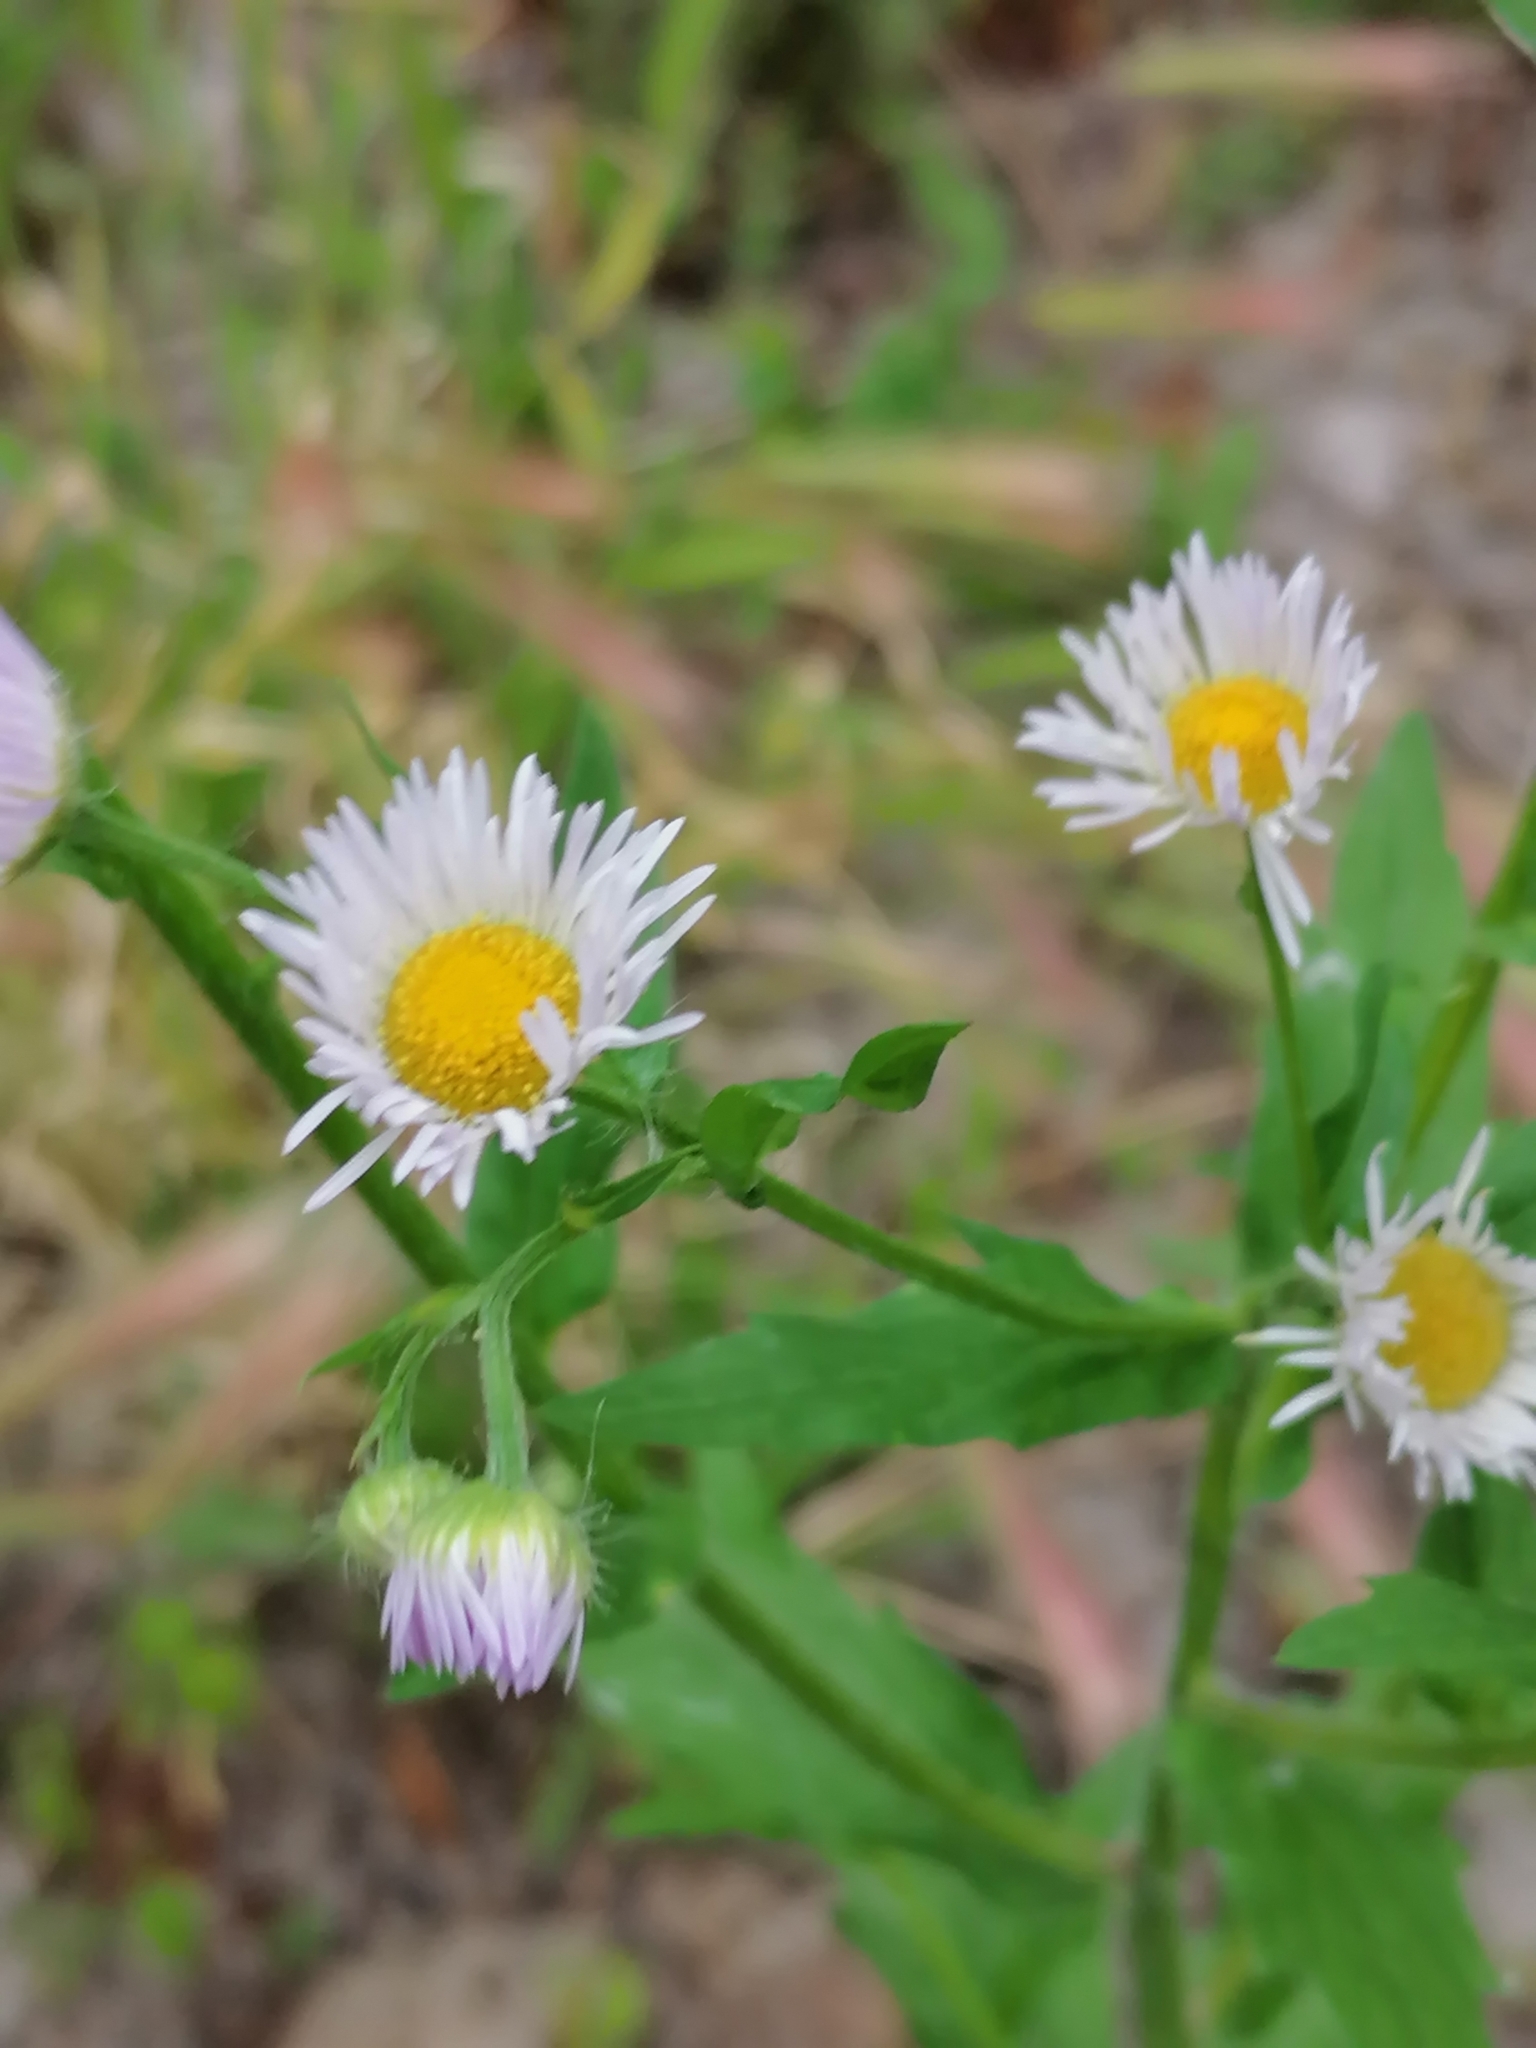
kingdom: Plantae
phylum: Tracheophyta
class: Magnoliopsida
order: Asterales
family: Asteraceae
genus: Erigeron
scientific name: Erigeron annuus
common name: Tall fleabane
